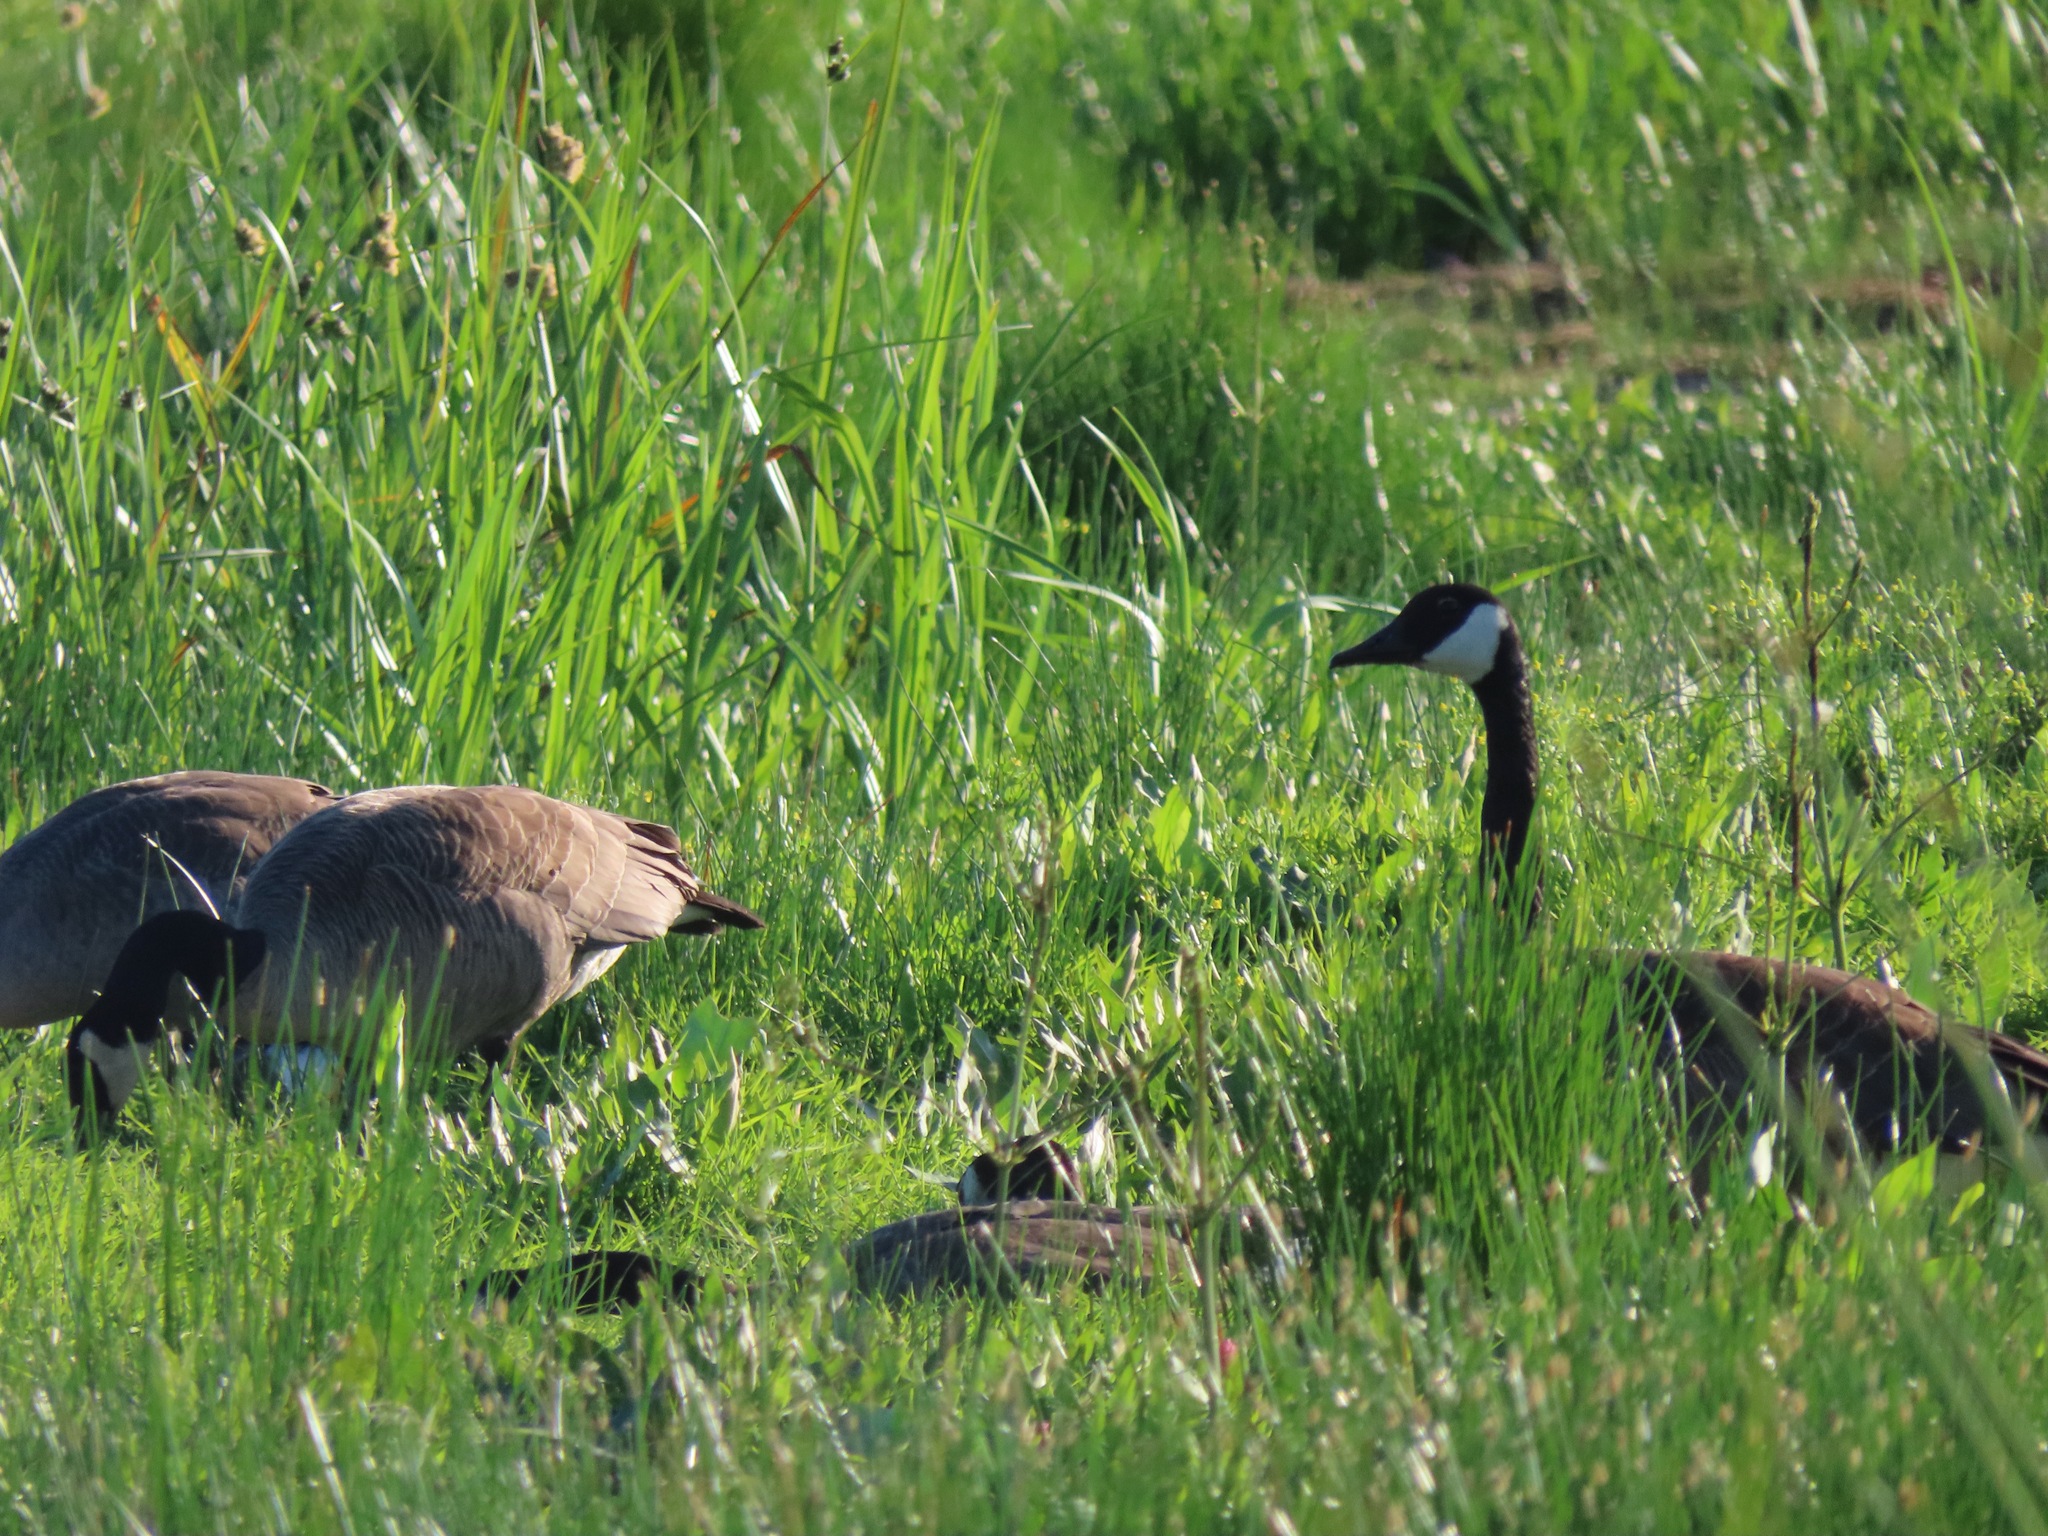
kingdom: Animalia
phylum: Chordata
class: Aves
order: Anseriformes
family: Anatidae
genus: Branta
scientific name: Branta canadensis
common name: Canada goose
